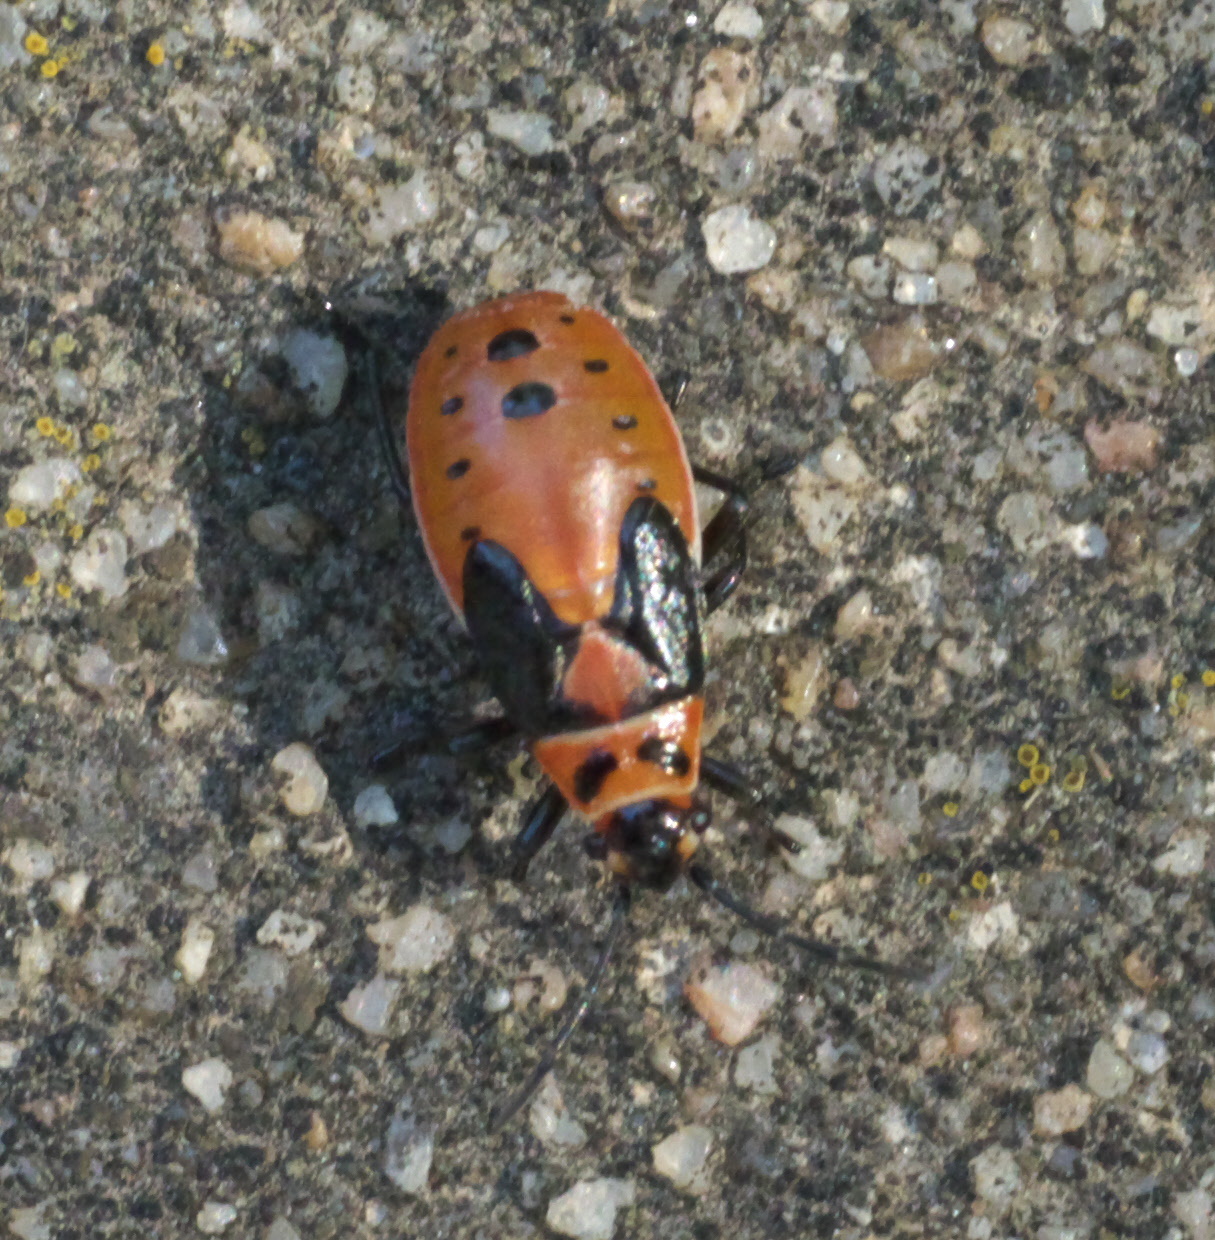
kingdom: Animalia
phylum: Arthropoda
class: Insecta
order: Hemiptera
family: Lygaeidae
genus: Lygaeus
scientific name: Lygaeus kalmii
